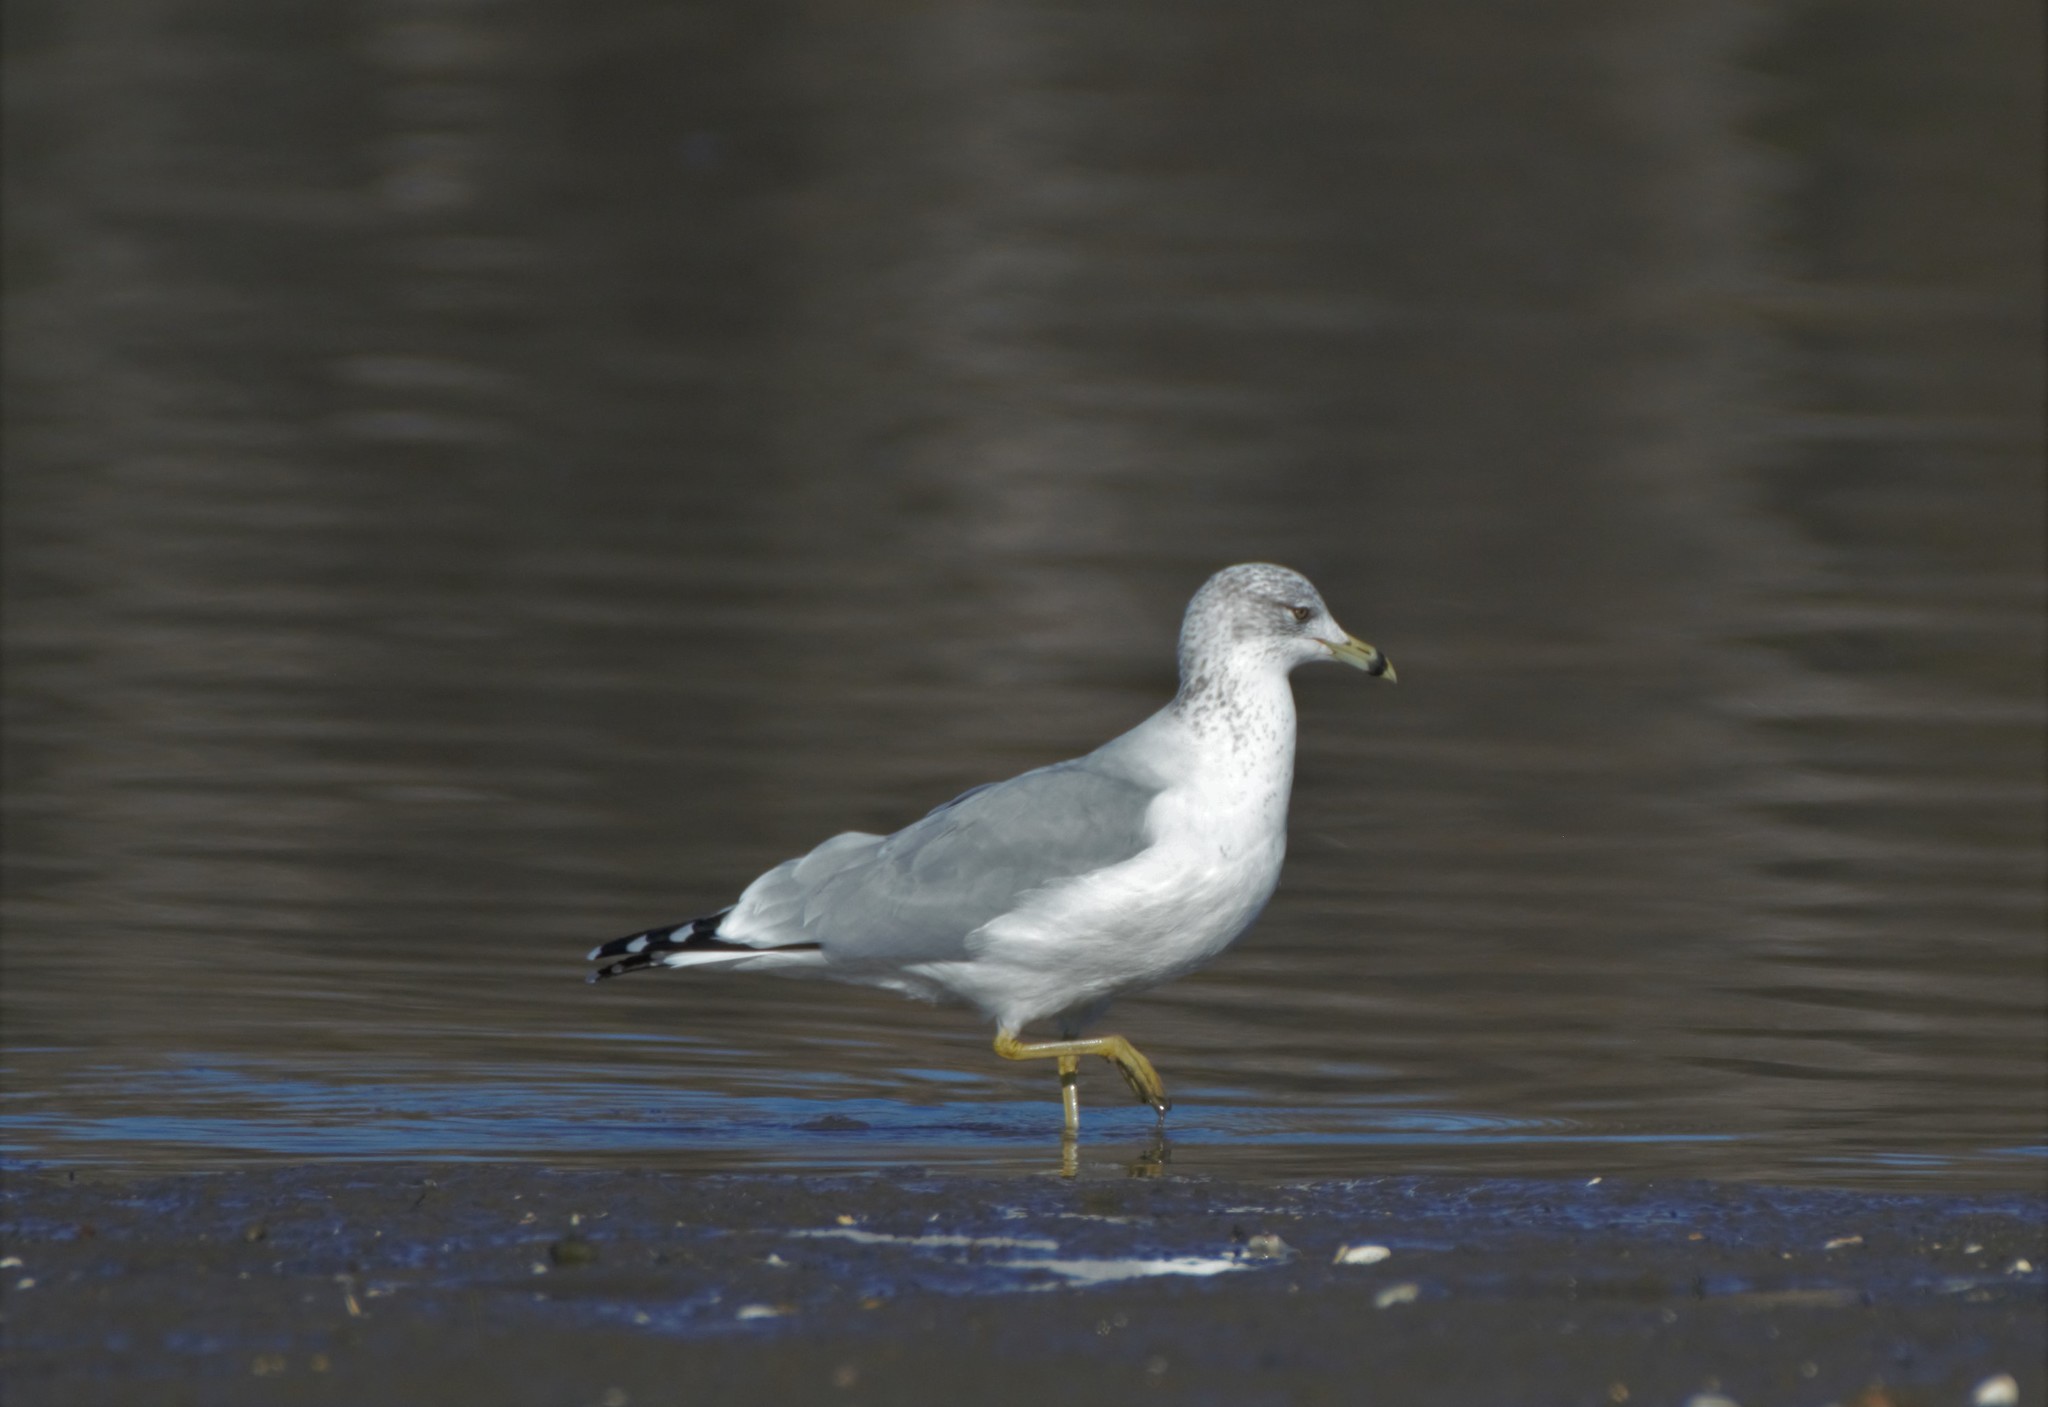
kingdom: Animalia
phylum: Chordata
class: Aves
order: Charadriiformes
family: Laridae
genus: Larus
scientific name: Larus delawarensis
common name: Ring-billed gull
